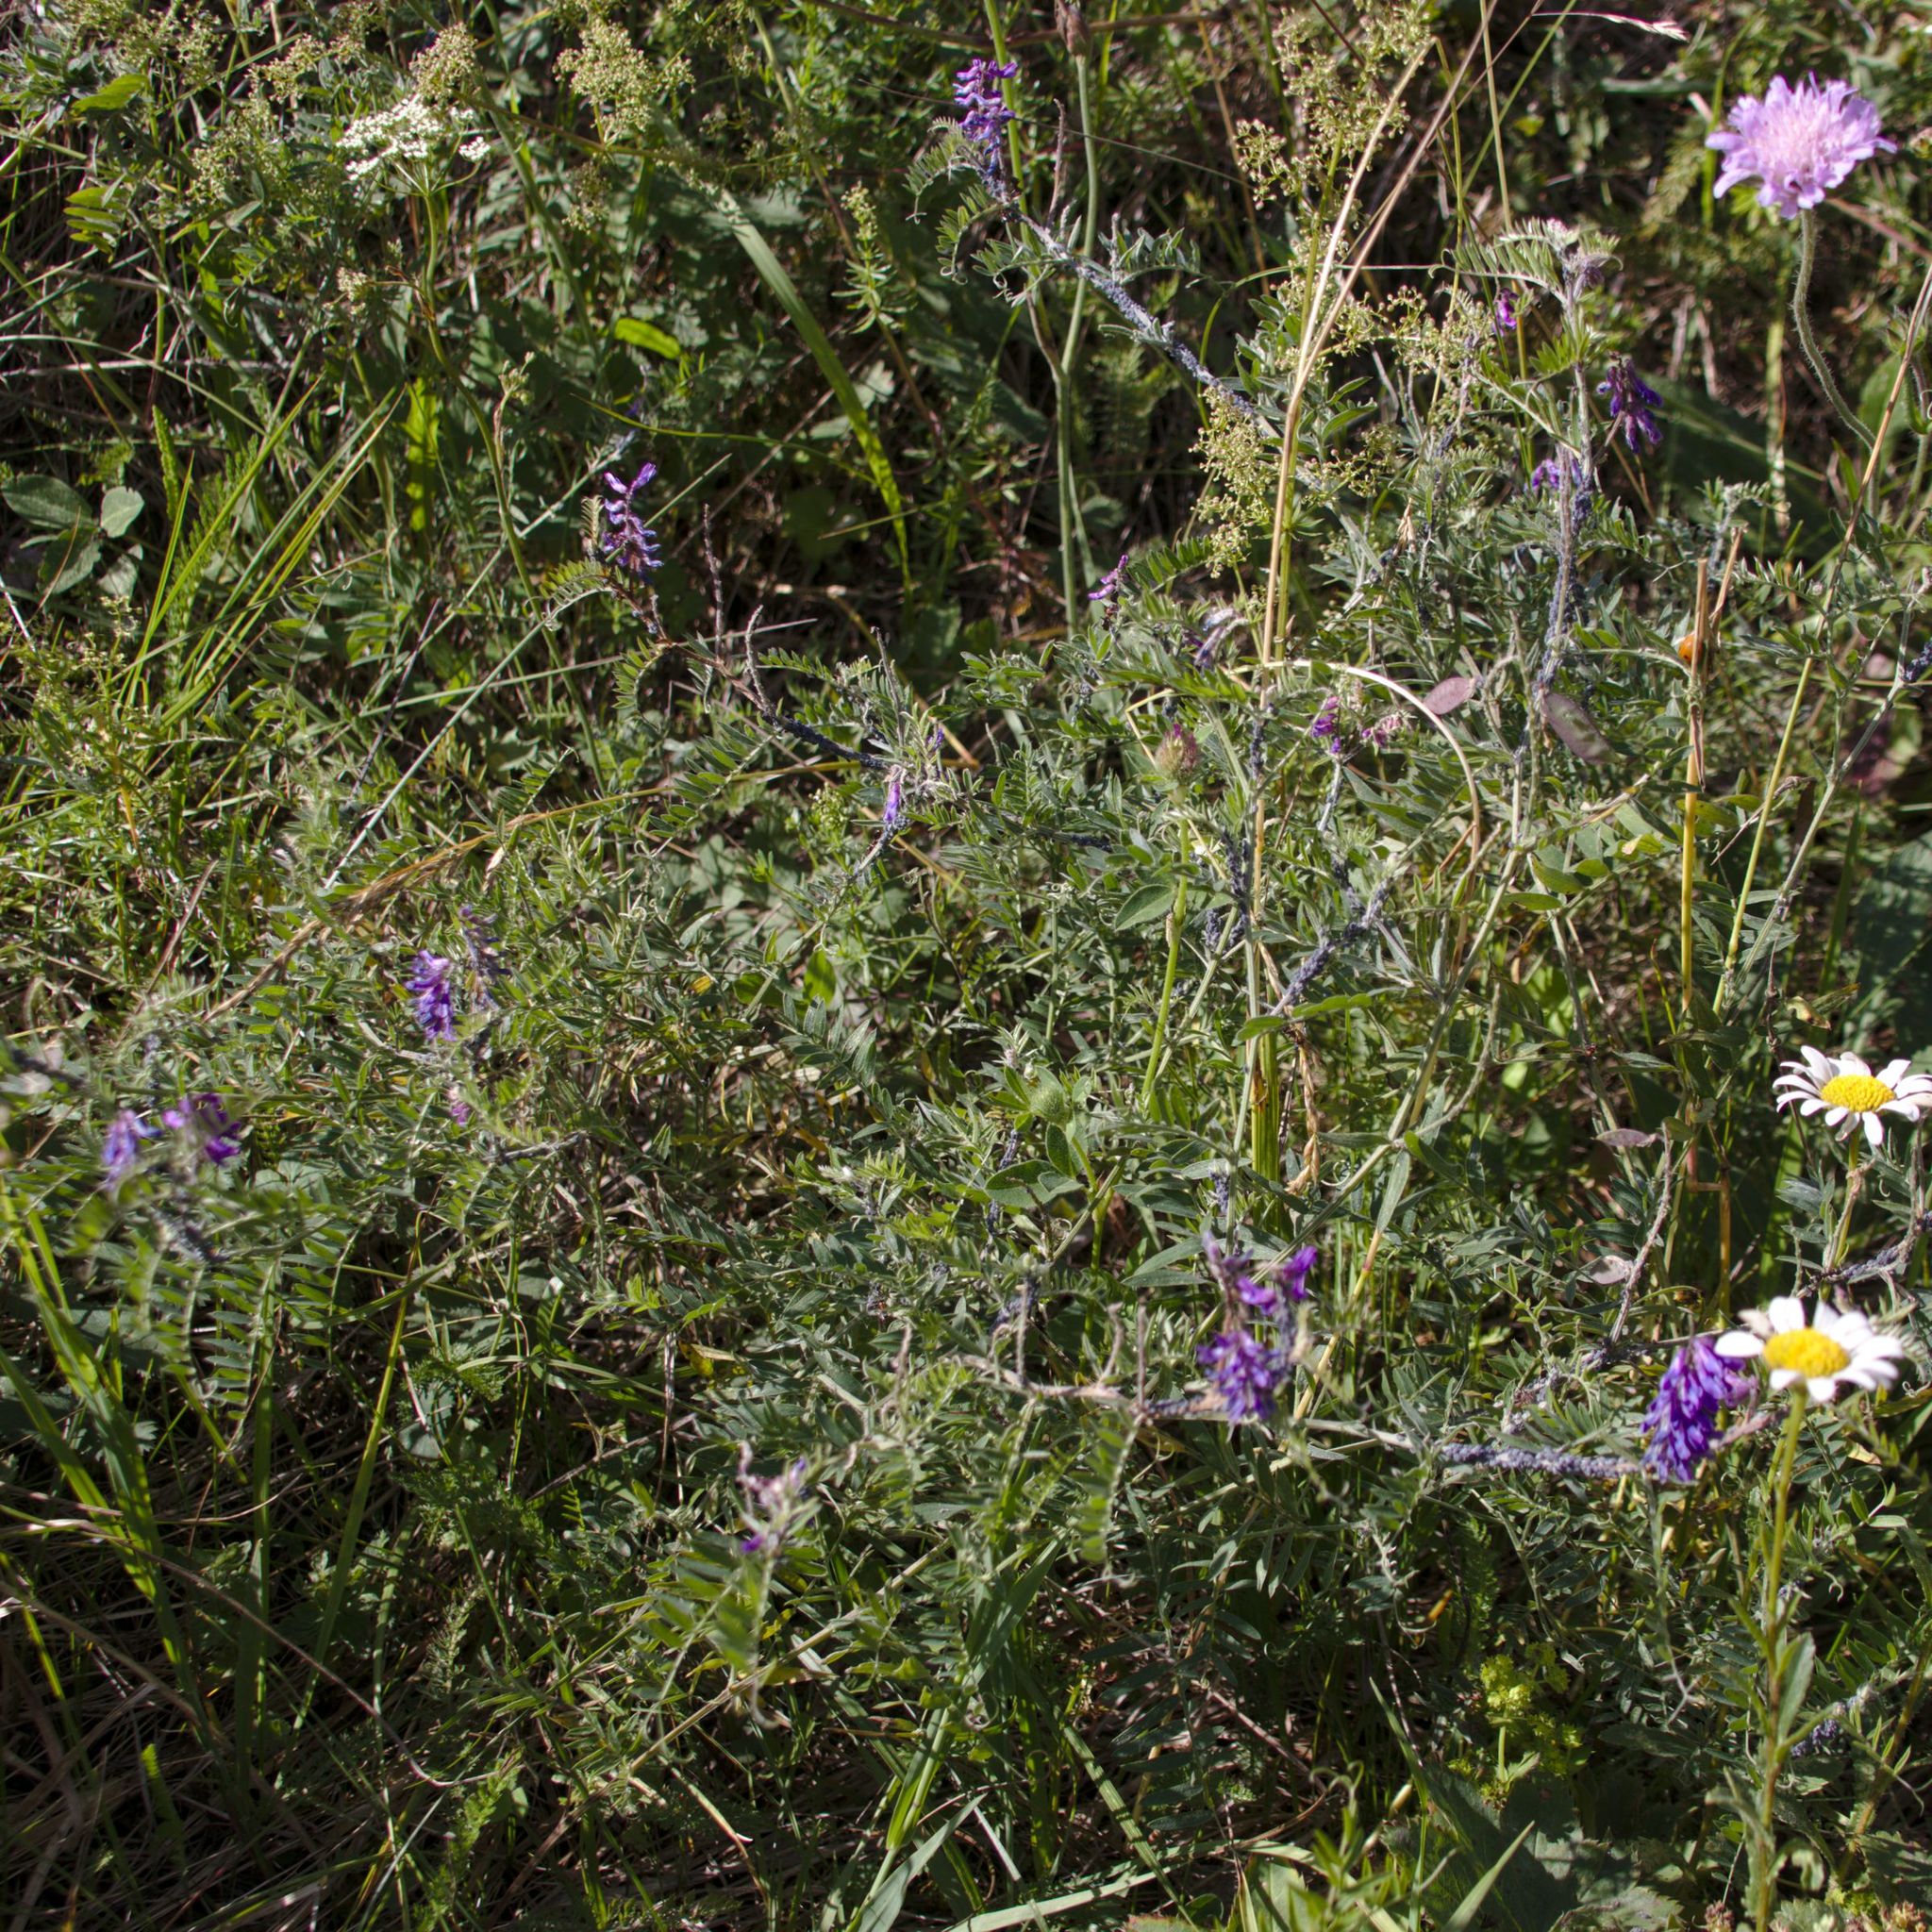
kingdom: Plantae
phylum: Tracheophyta
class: Magnoliopsida
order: Fabales
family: Fabaceae
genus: Vicia
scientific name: Vicia cracca
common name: Bird vetch
